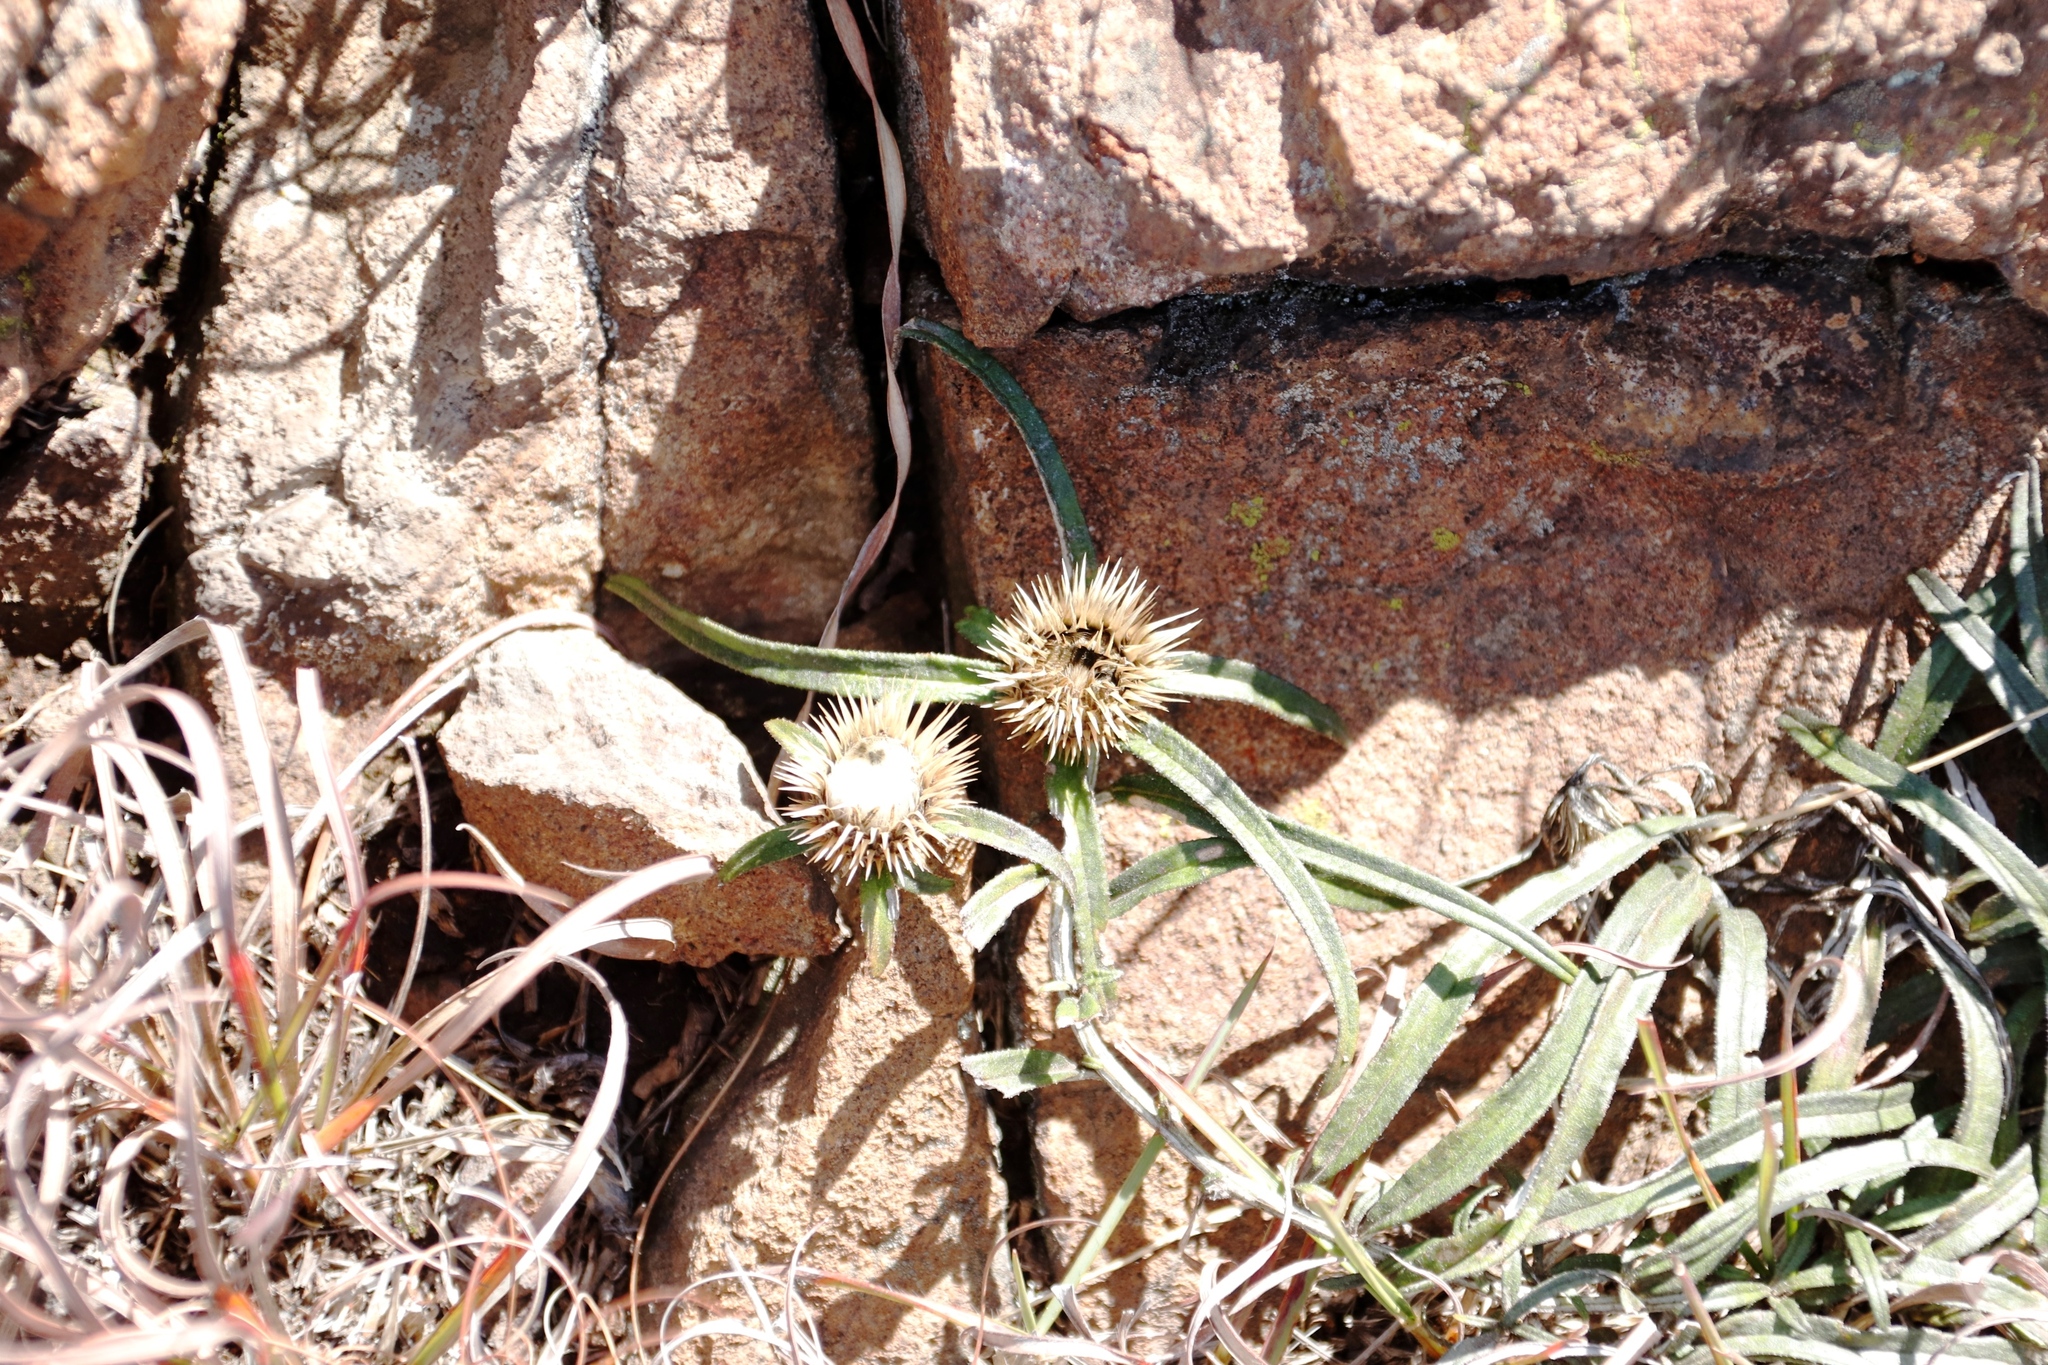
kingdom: Plantae
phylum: Tracheophyta
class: Magnoliopsida
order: Asterales
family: Asteraceae
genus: Dicoma
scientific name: Dicoma anomala
